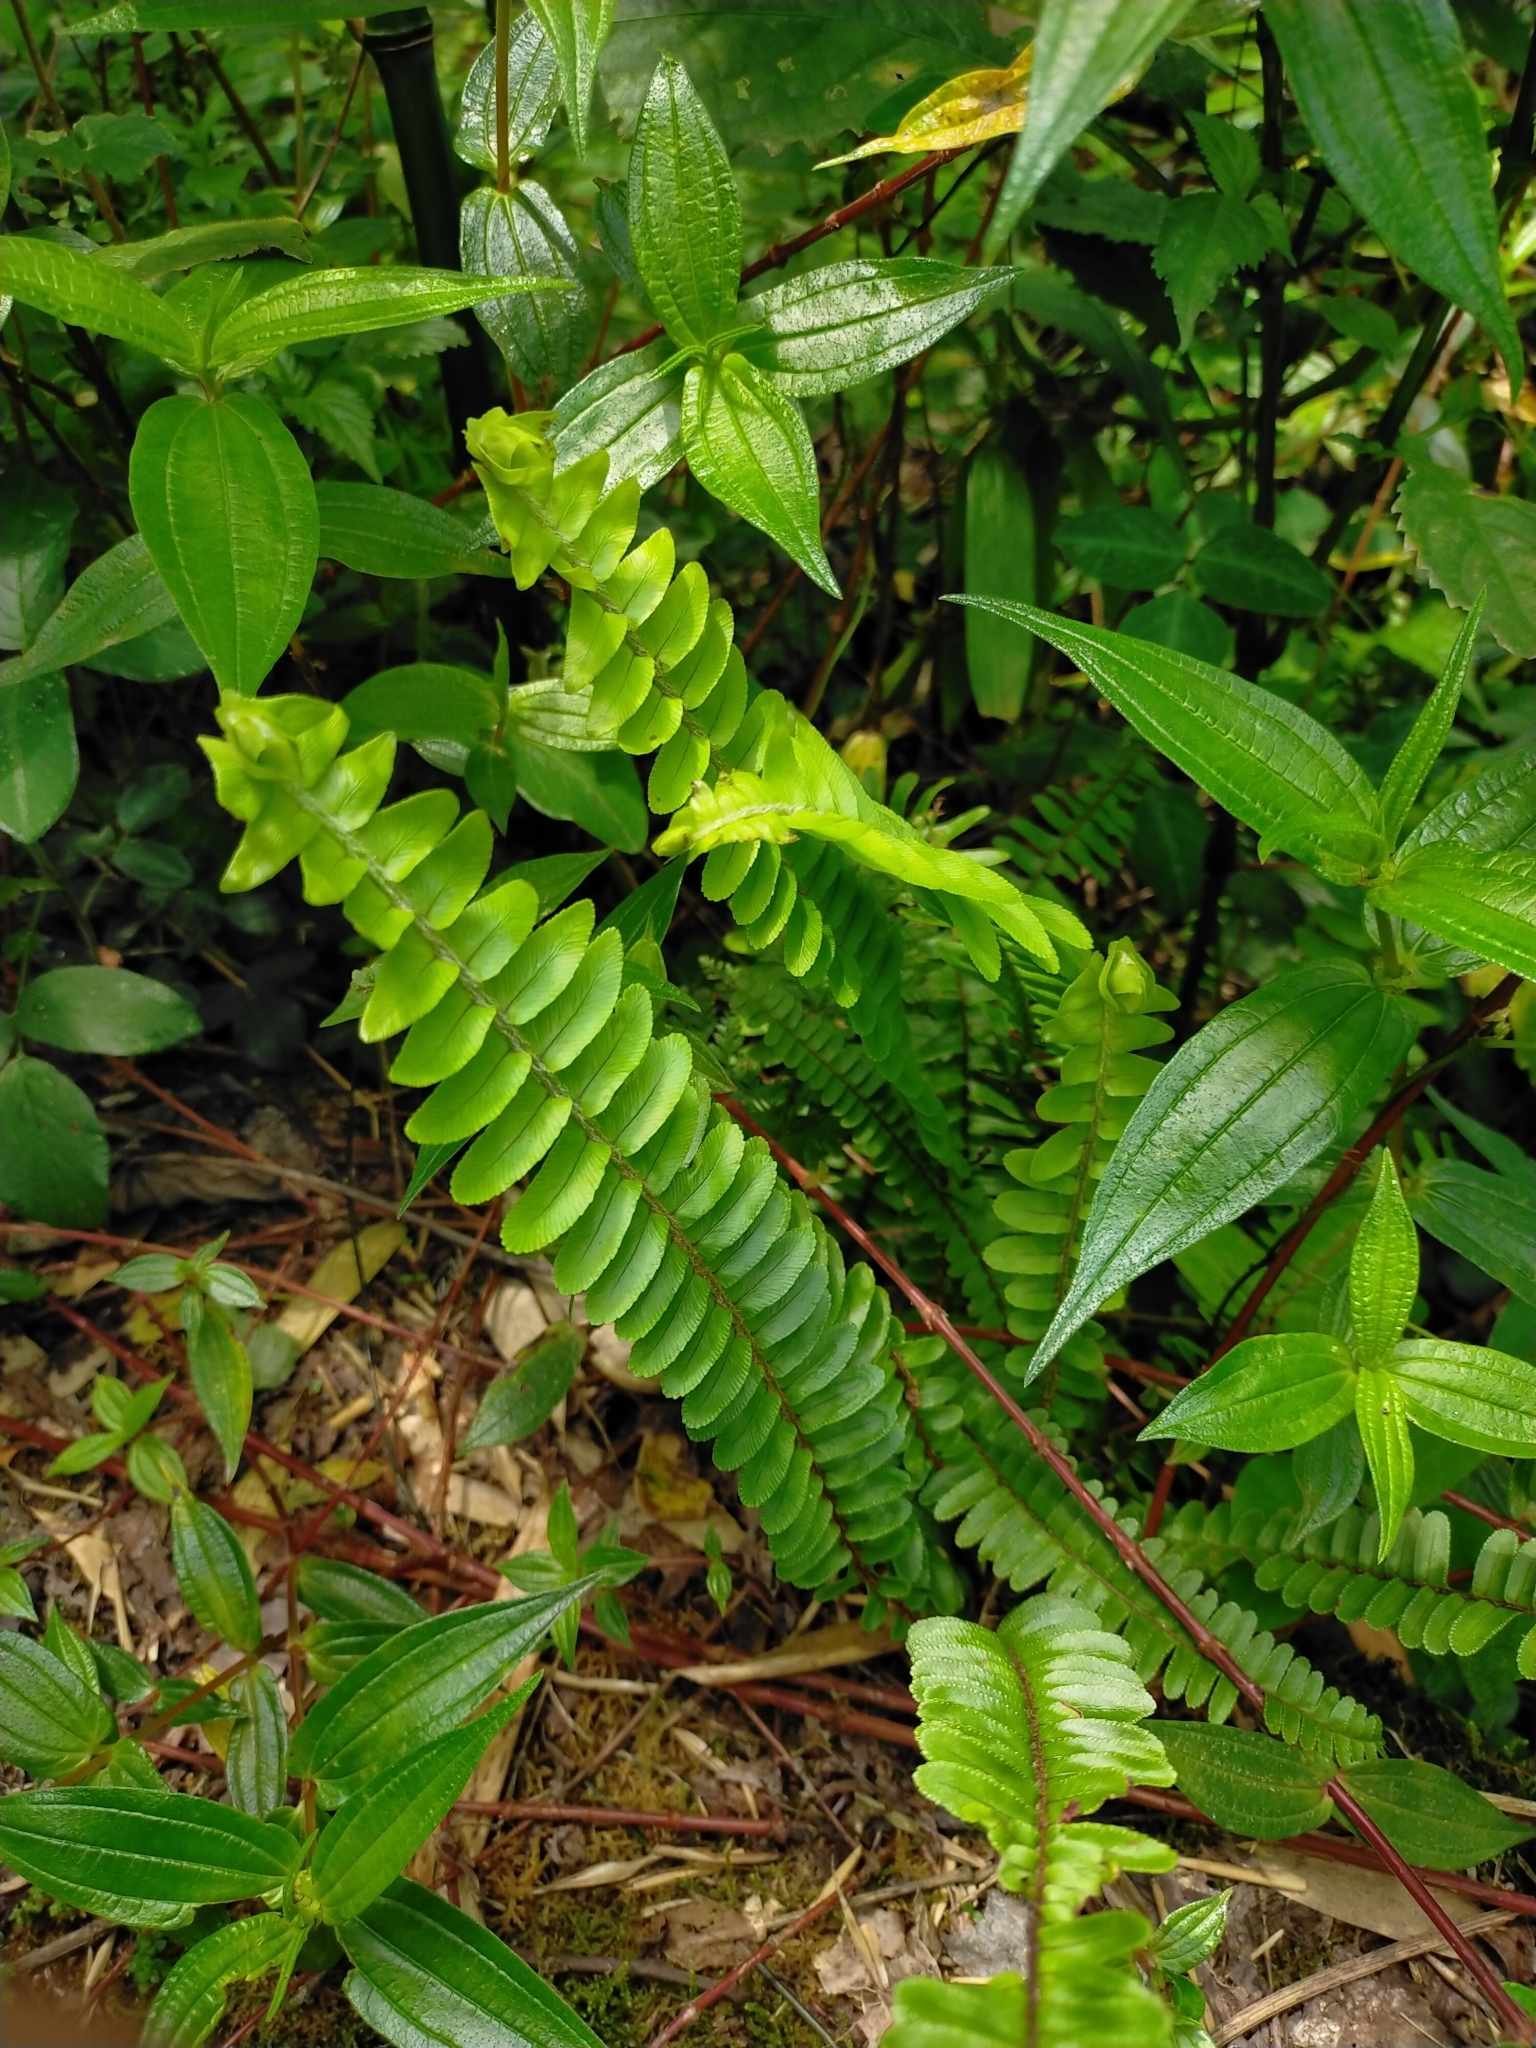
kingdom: Plantae
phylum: Tracheophyta
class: Polypodiopsida
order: Polypodiales
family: Nephrolepidaceae
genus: Nephrolepis
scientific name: Nephrolepis cordifolia
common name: Narrow swordfern
